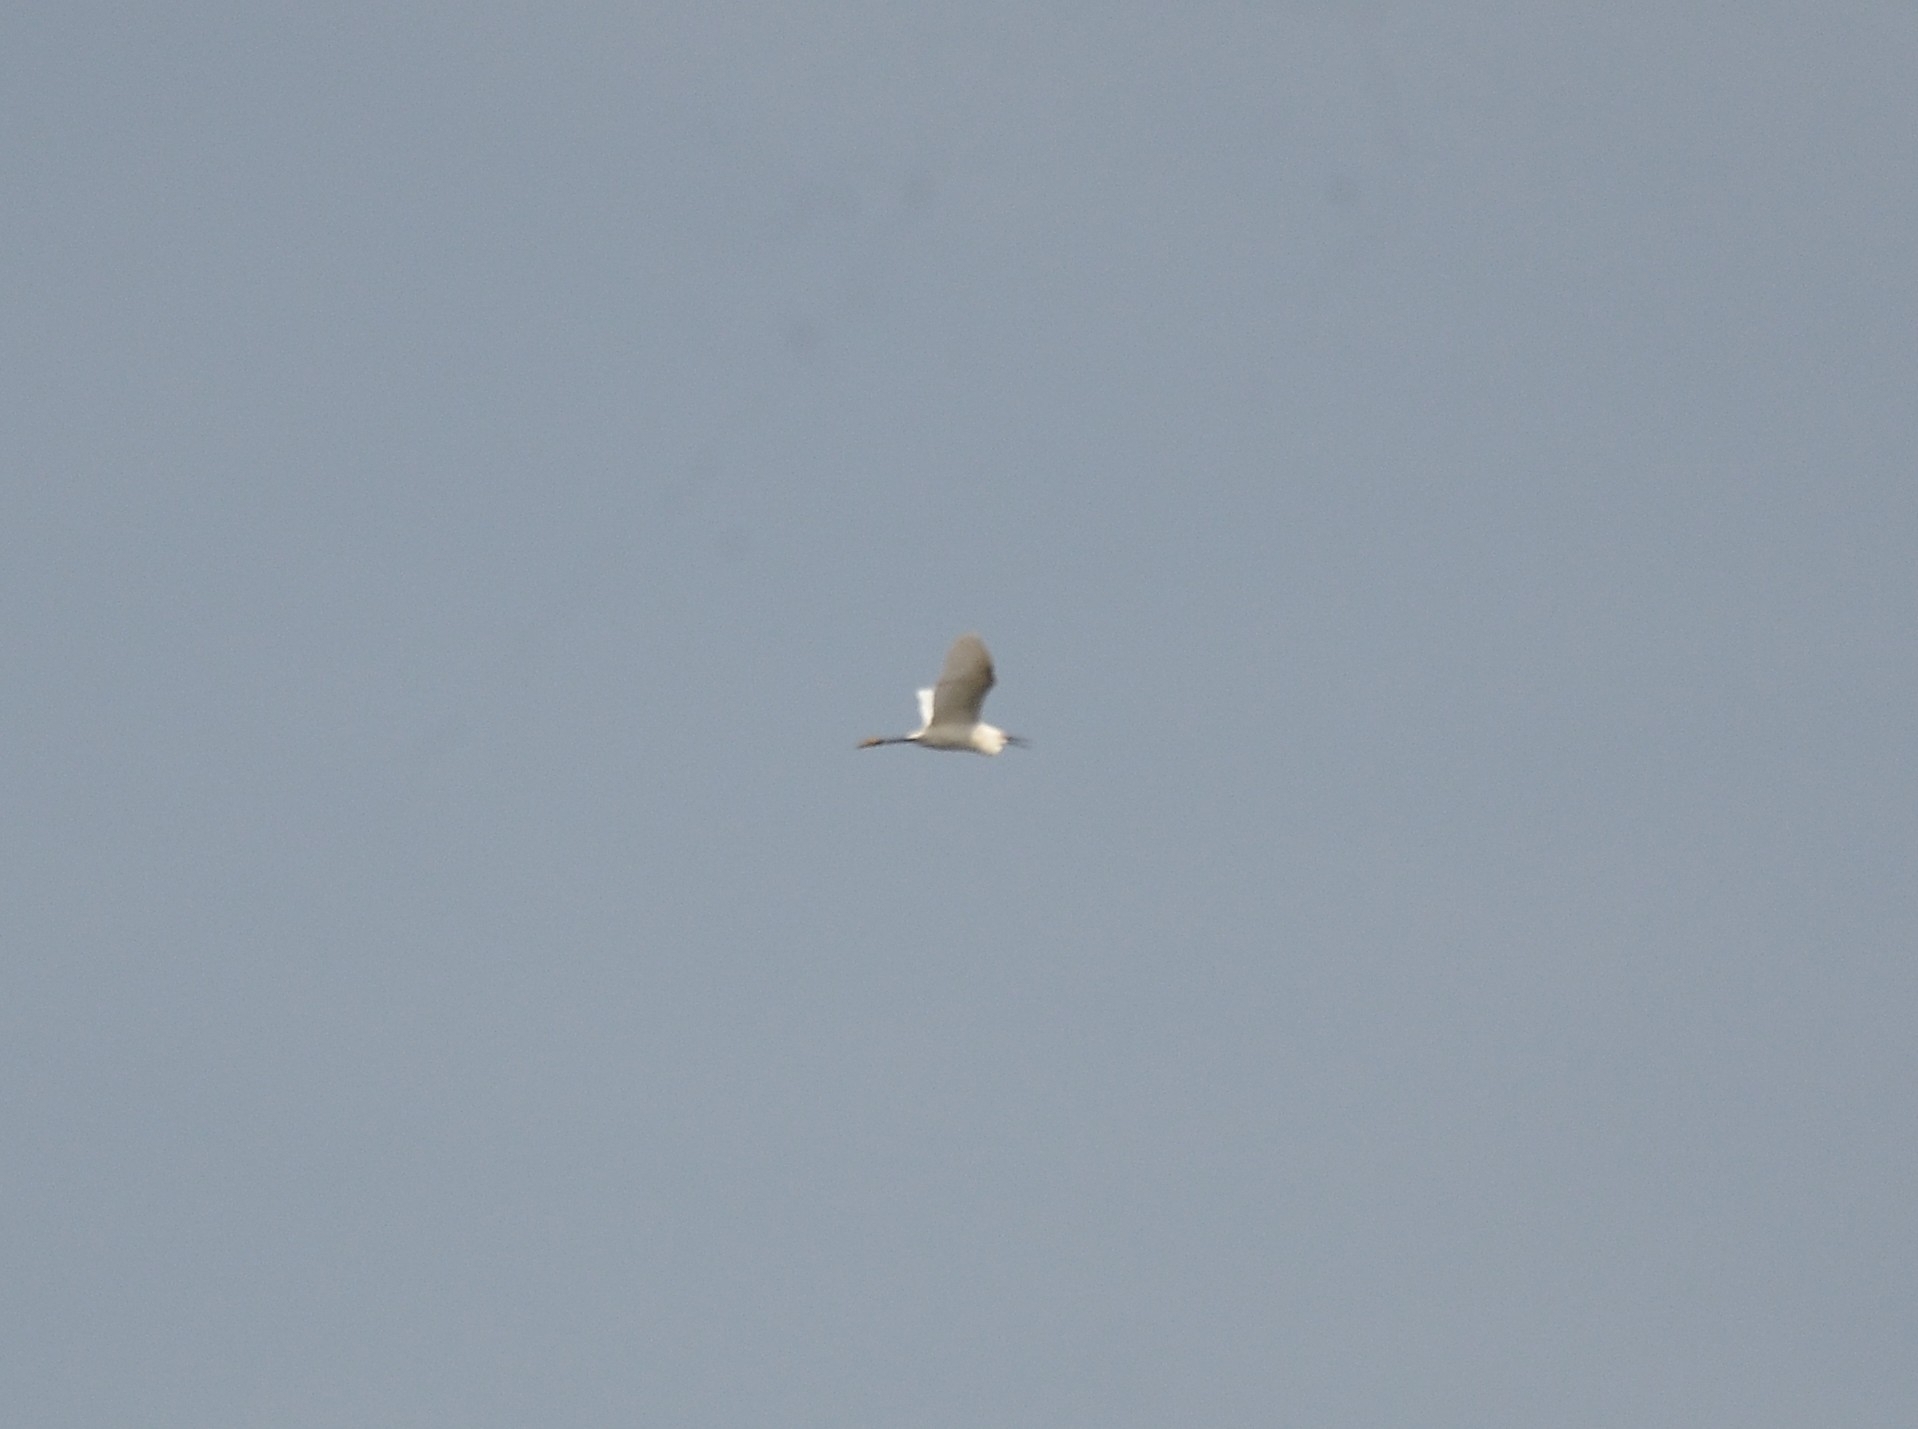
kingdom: Animalia
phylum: Chordata
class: Aves
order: Pelecaniformes
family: Ardeidae
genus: Egretta
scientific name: Egretta garzetta
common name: Little egret
